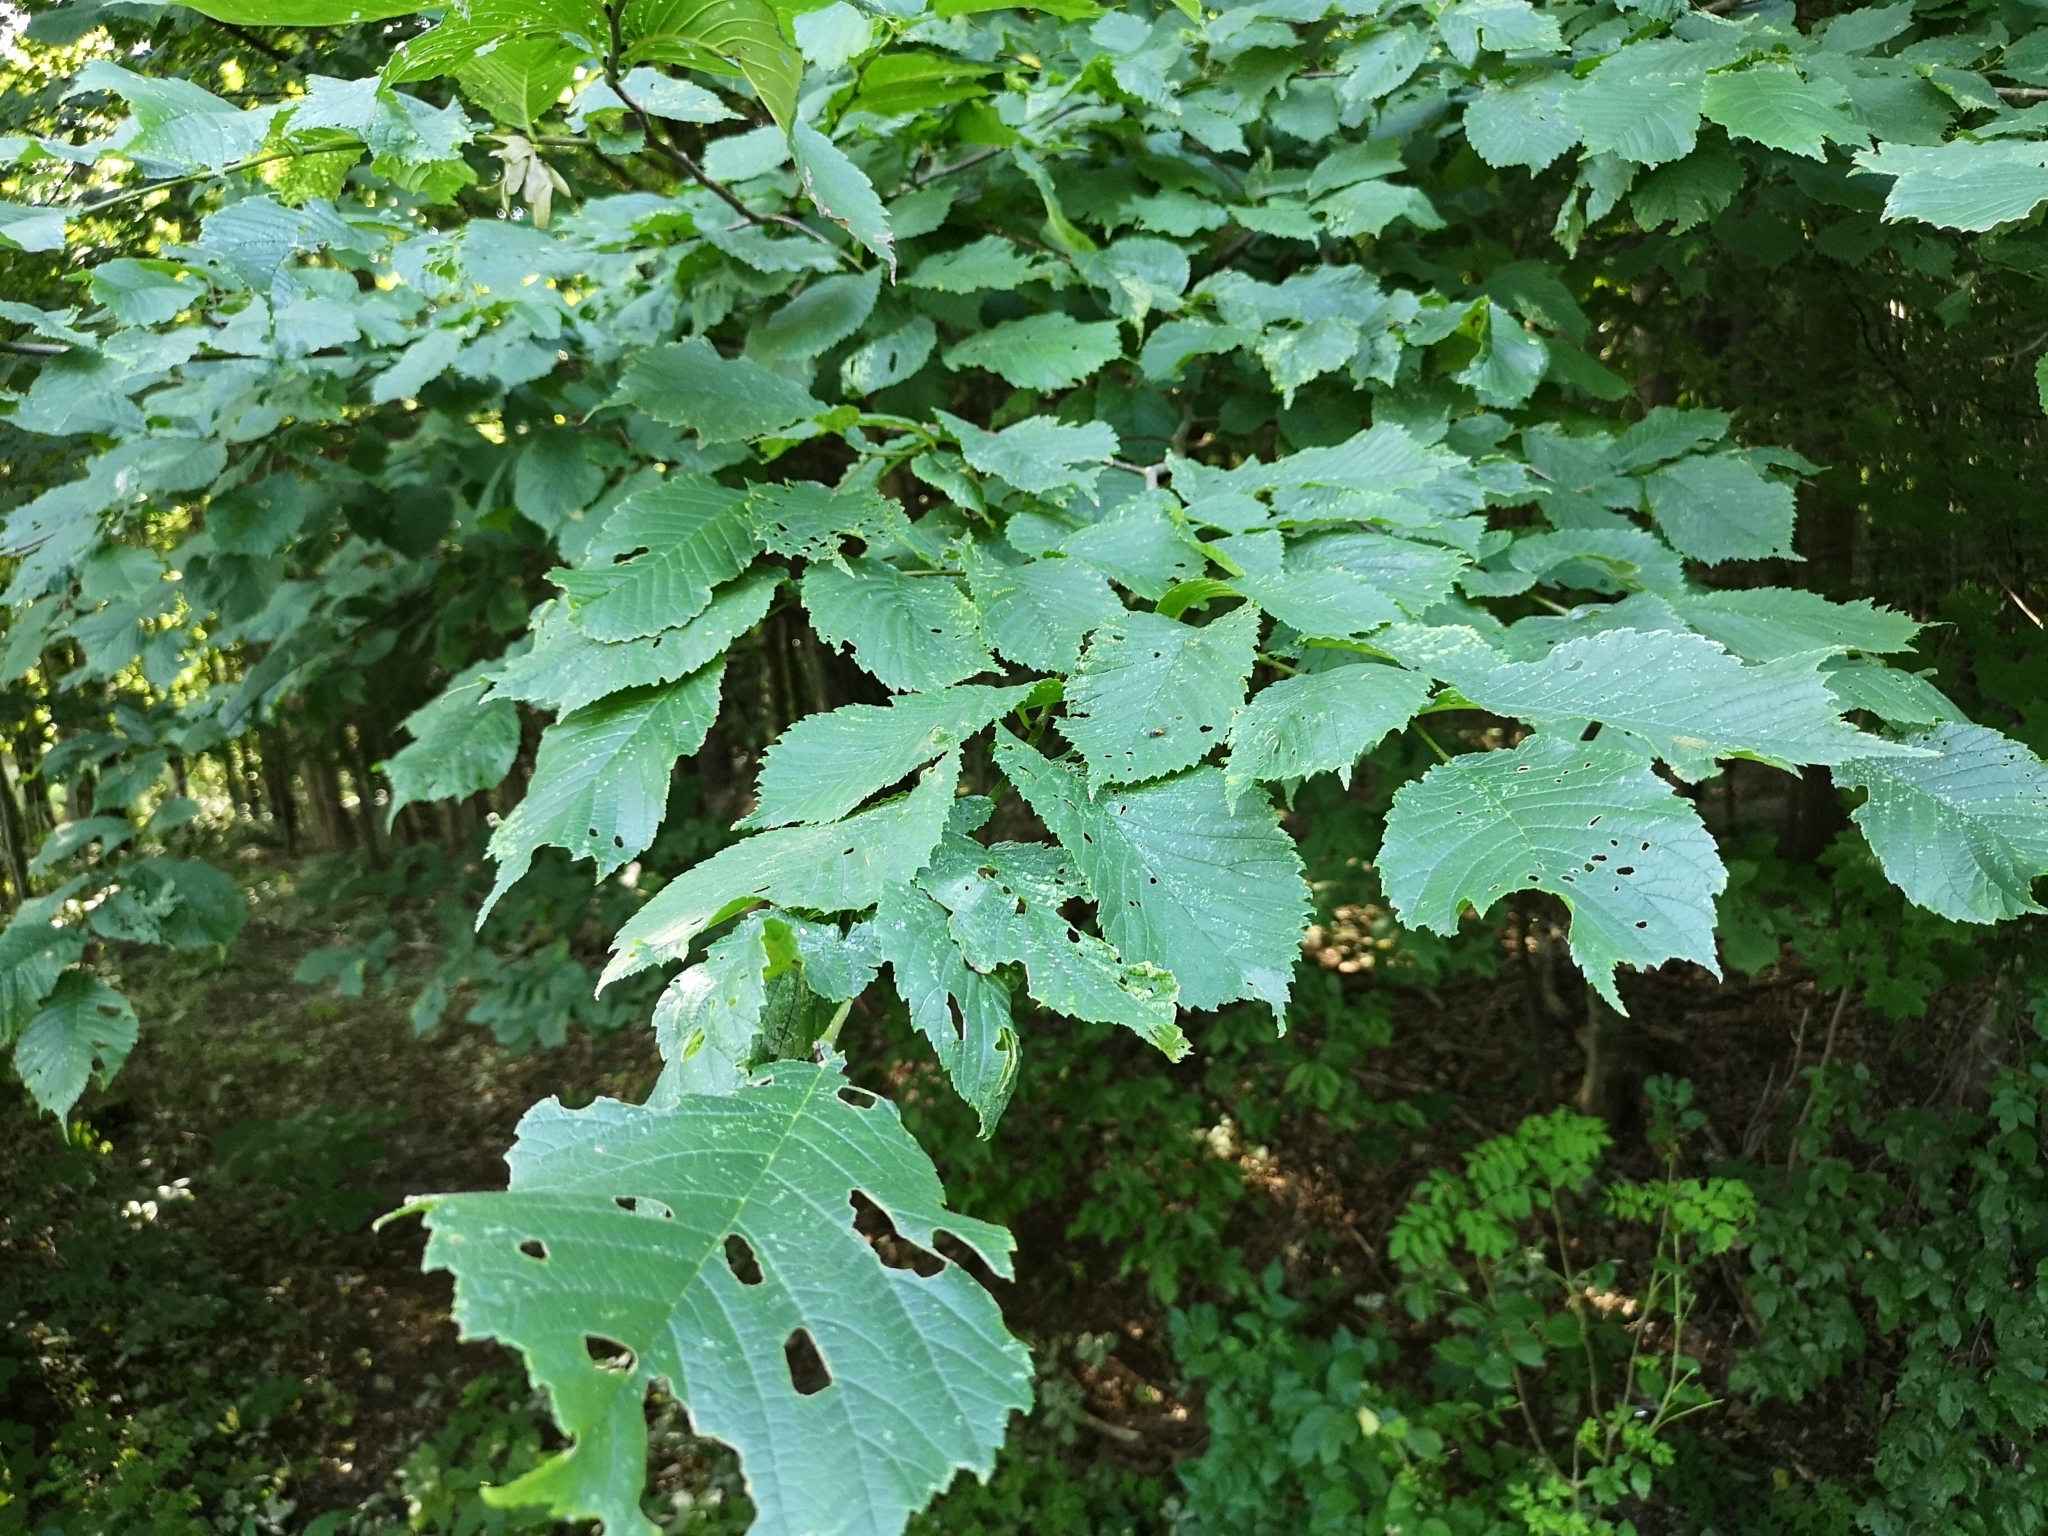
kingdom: Plantae
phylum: Tracheophyta
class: Magnoliopsida
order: Rosales
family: Ulmaceae
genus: Ulmus
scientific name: Ulmus minor
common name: Small-leaved elm
